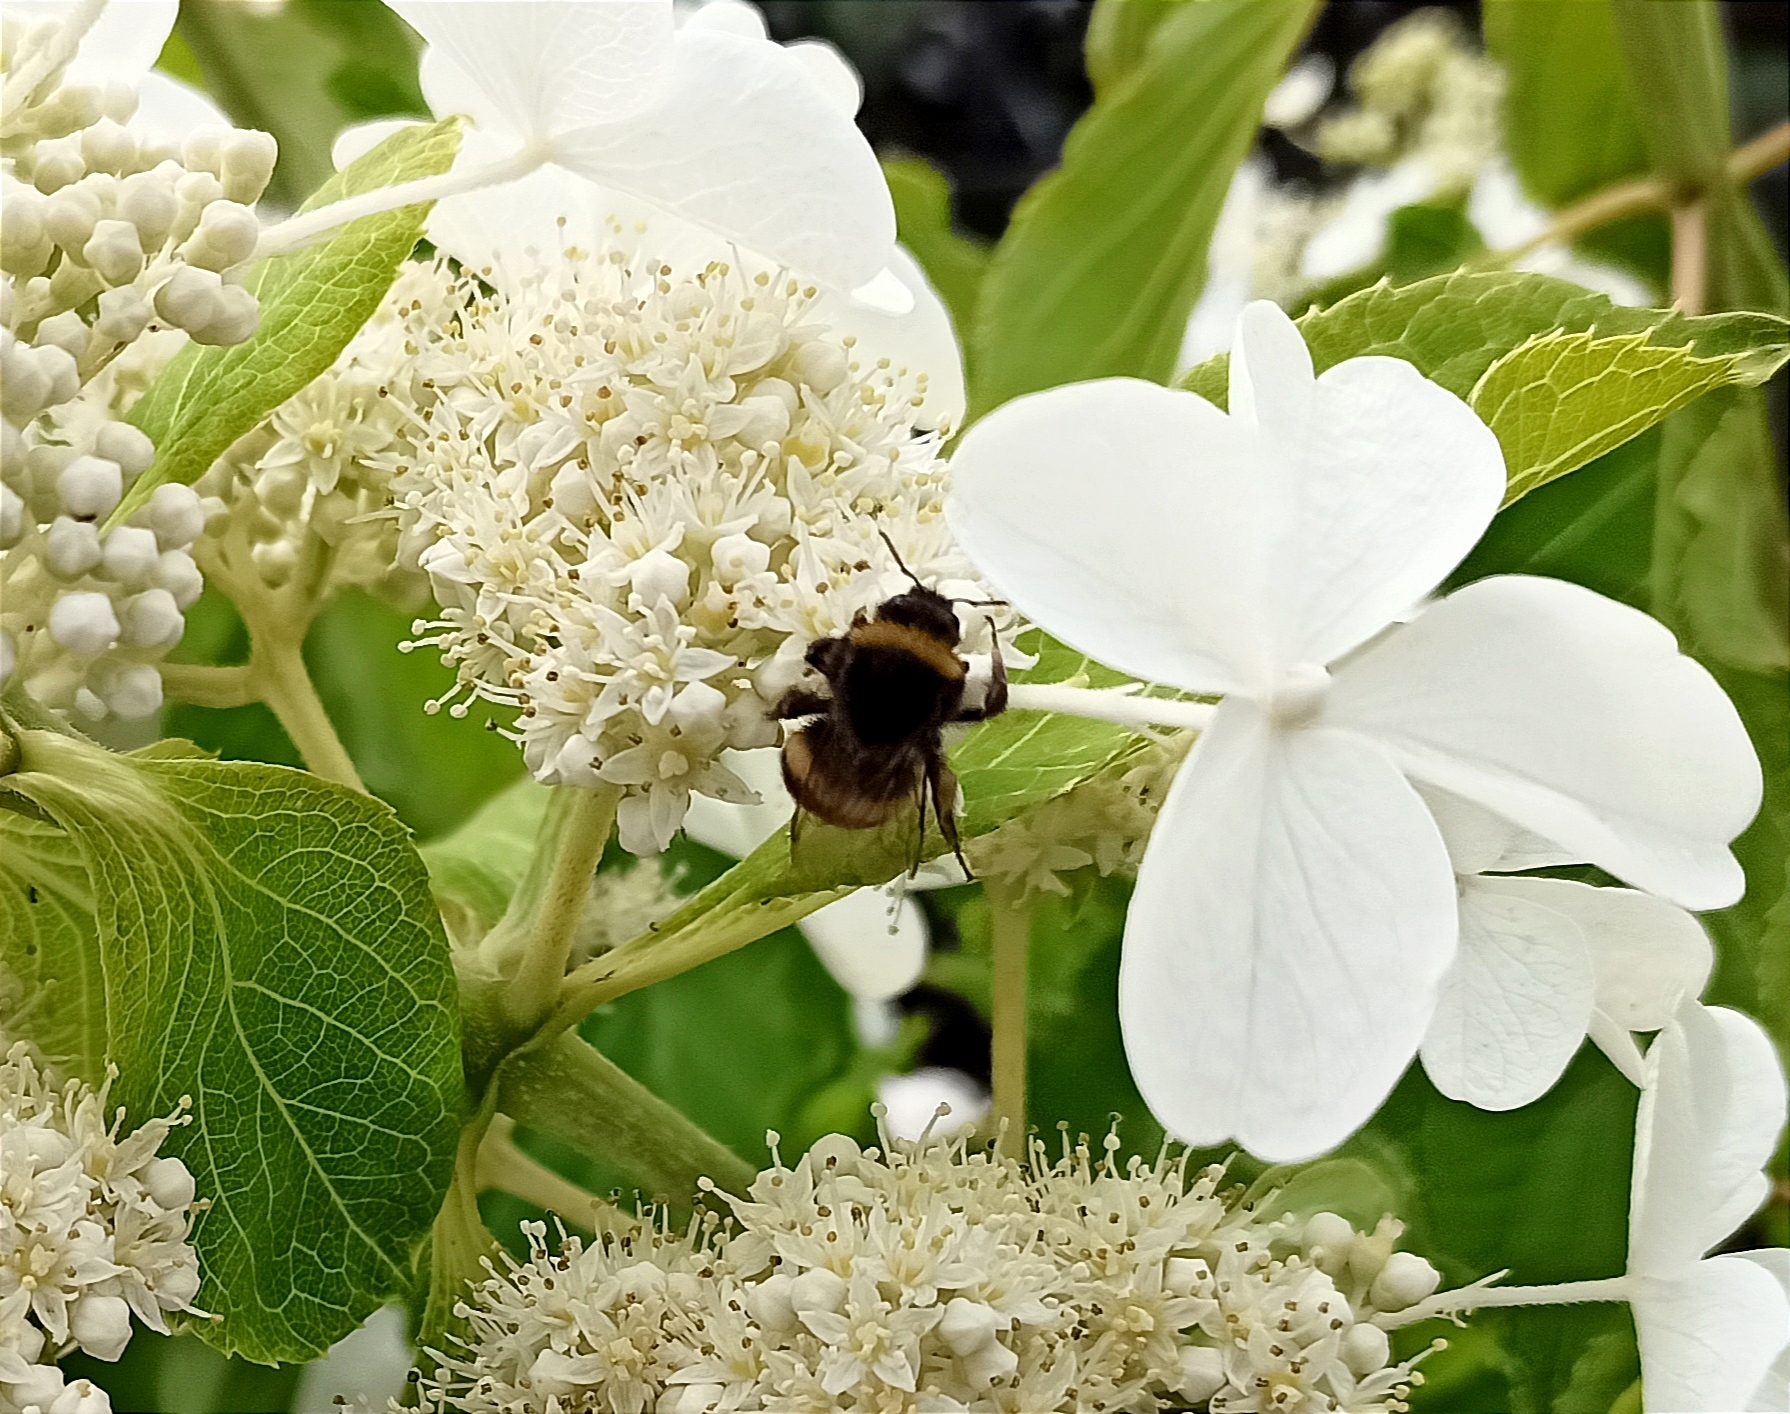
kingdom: Animalia
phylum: Arthropoda
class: Insecta
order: Hymenoptera
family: Apidae
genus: Bombus
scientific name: Bombus
